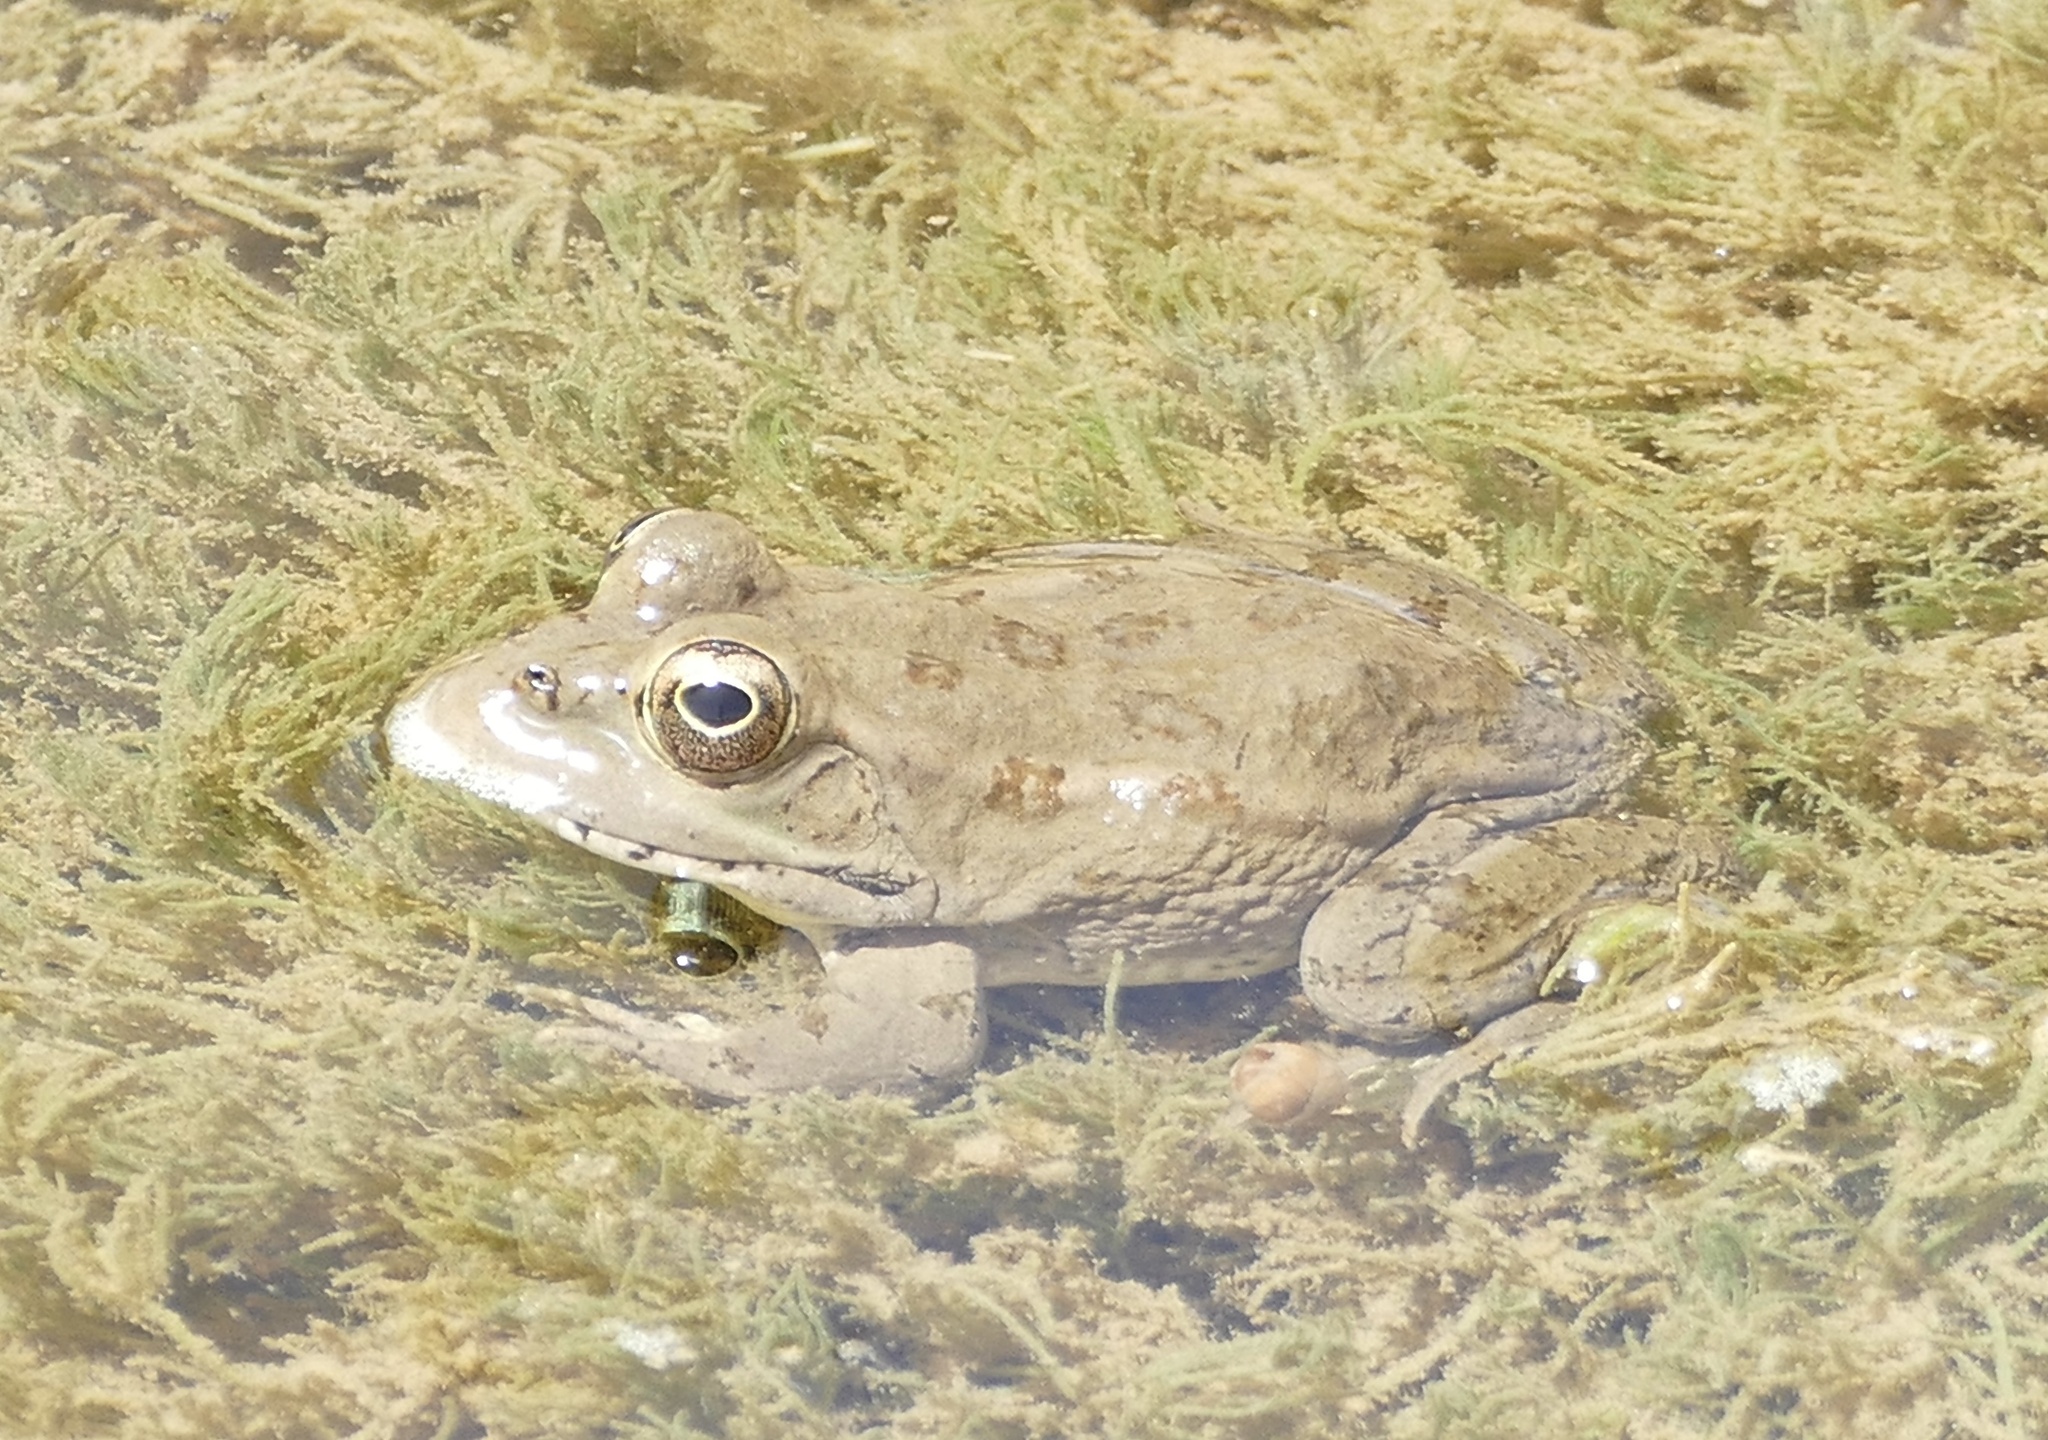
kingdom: Animalia
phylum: Chordata
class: Amphibia
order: Anura
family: Ranidae
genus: Pelophylax
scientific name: Pelophylax saharicus
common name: Sahara frog
